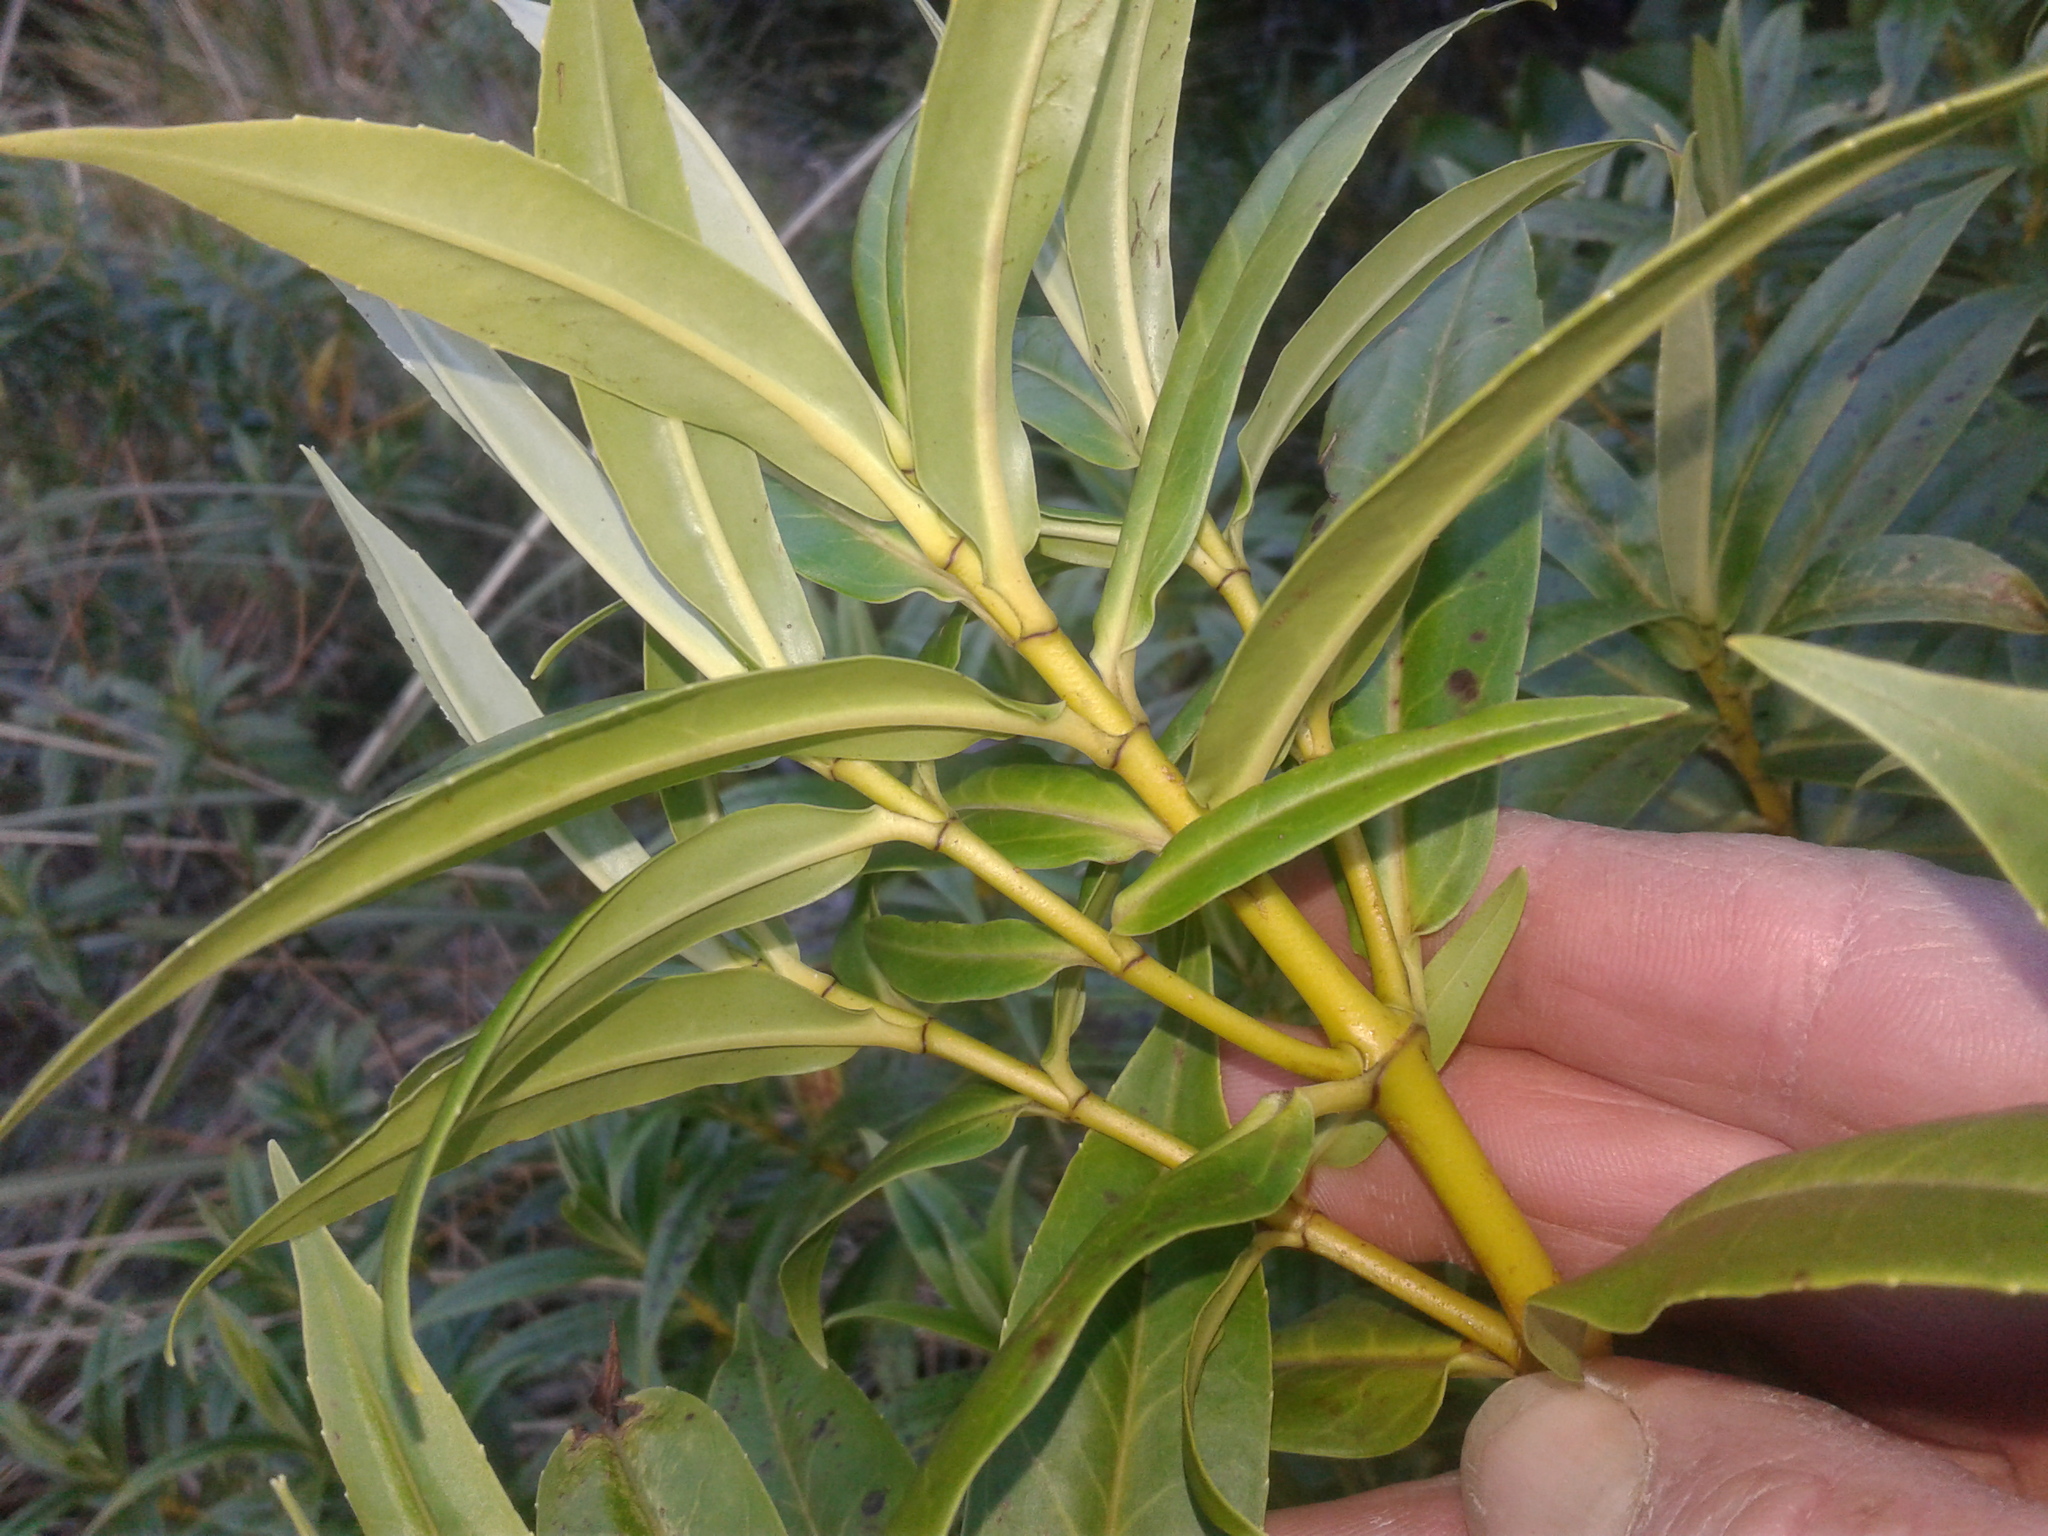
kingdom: Plantae
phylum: Tracheophyta
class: Magnoliopsida
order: Lamiales
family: Plantaginaceae
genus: Veronica
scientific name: Veronica salicifolia
